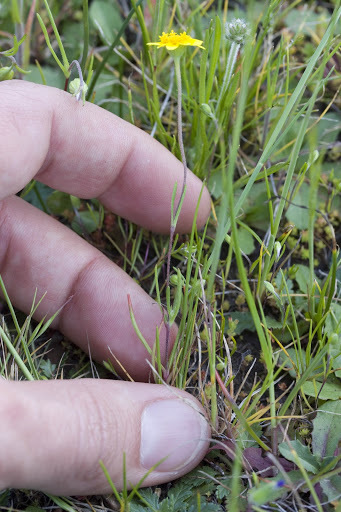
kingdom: Plantae
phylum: Tracheophyta
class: Magnoliopsida
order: Asterales
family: Asteraceae
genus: Lasthenia
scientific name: Lasthenia californica
